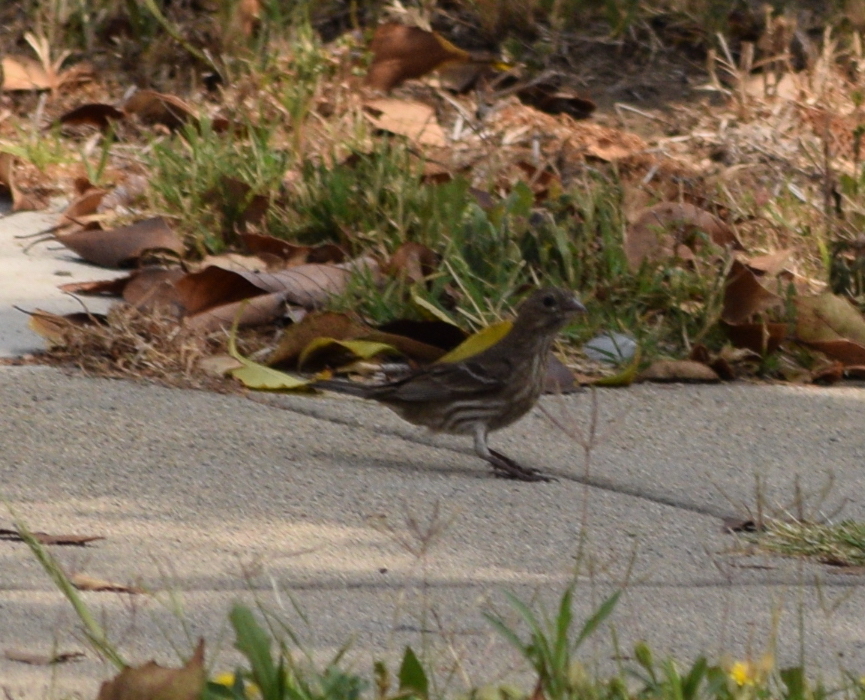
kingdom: Animalia
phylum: Chordata
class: Aves
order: Passeriformes
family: Fringillidae
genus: Haemorhous
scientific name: Haemorhous mexicanus
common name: House finch
